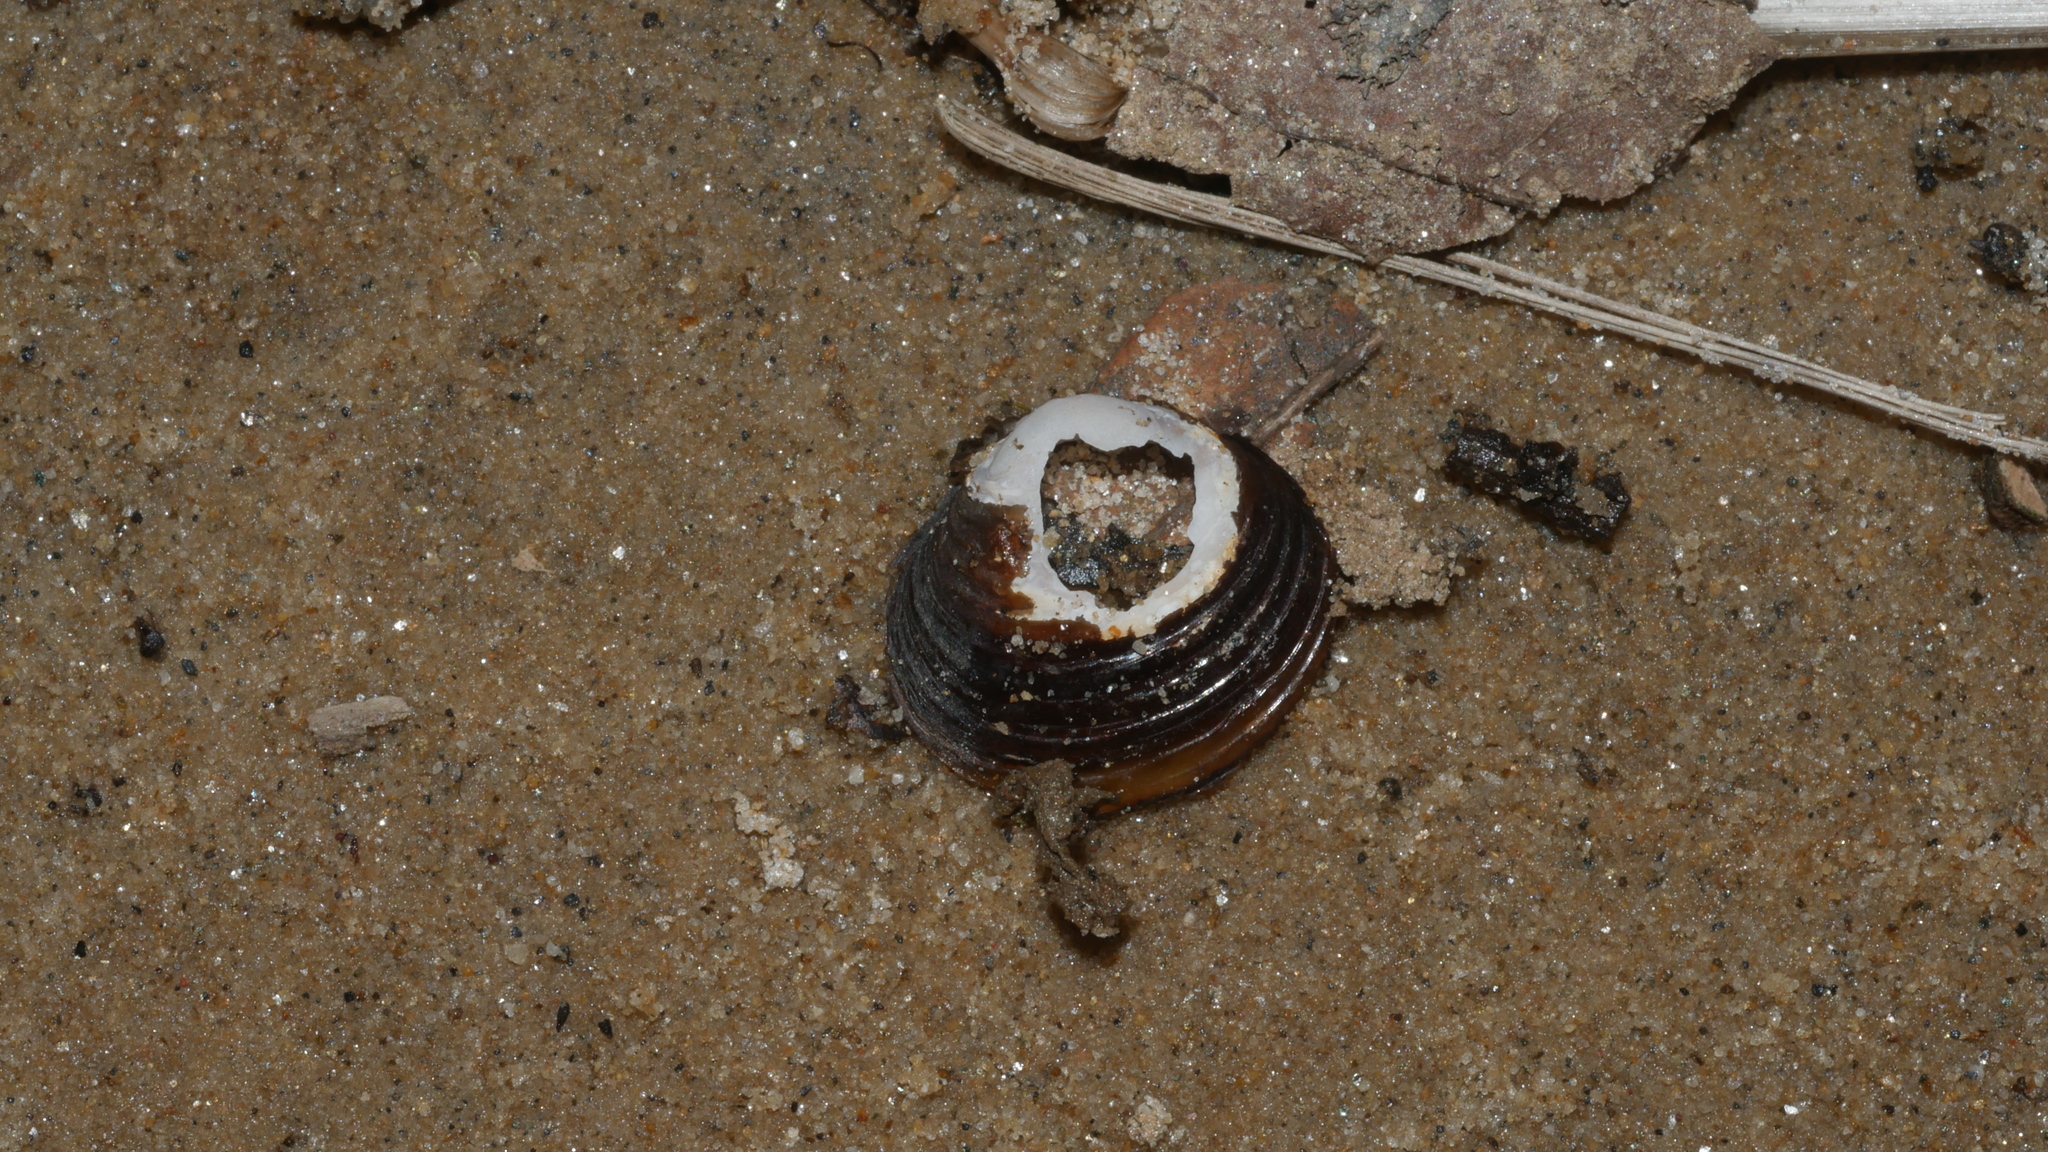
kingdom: Animalia
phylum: Mollusca
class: Bivalvia
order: Venerida
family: Cyrenidae
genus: Corbicula
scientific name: Corbicula fluminea
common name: Asian clam
